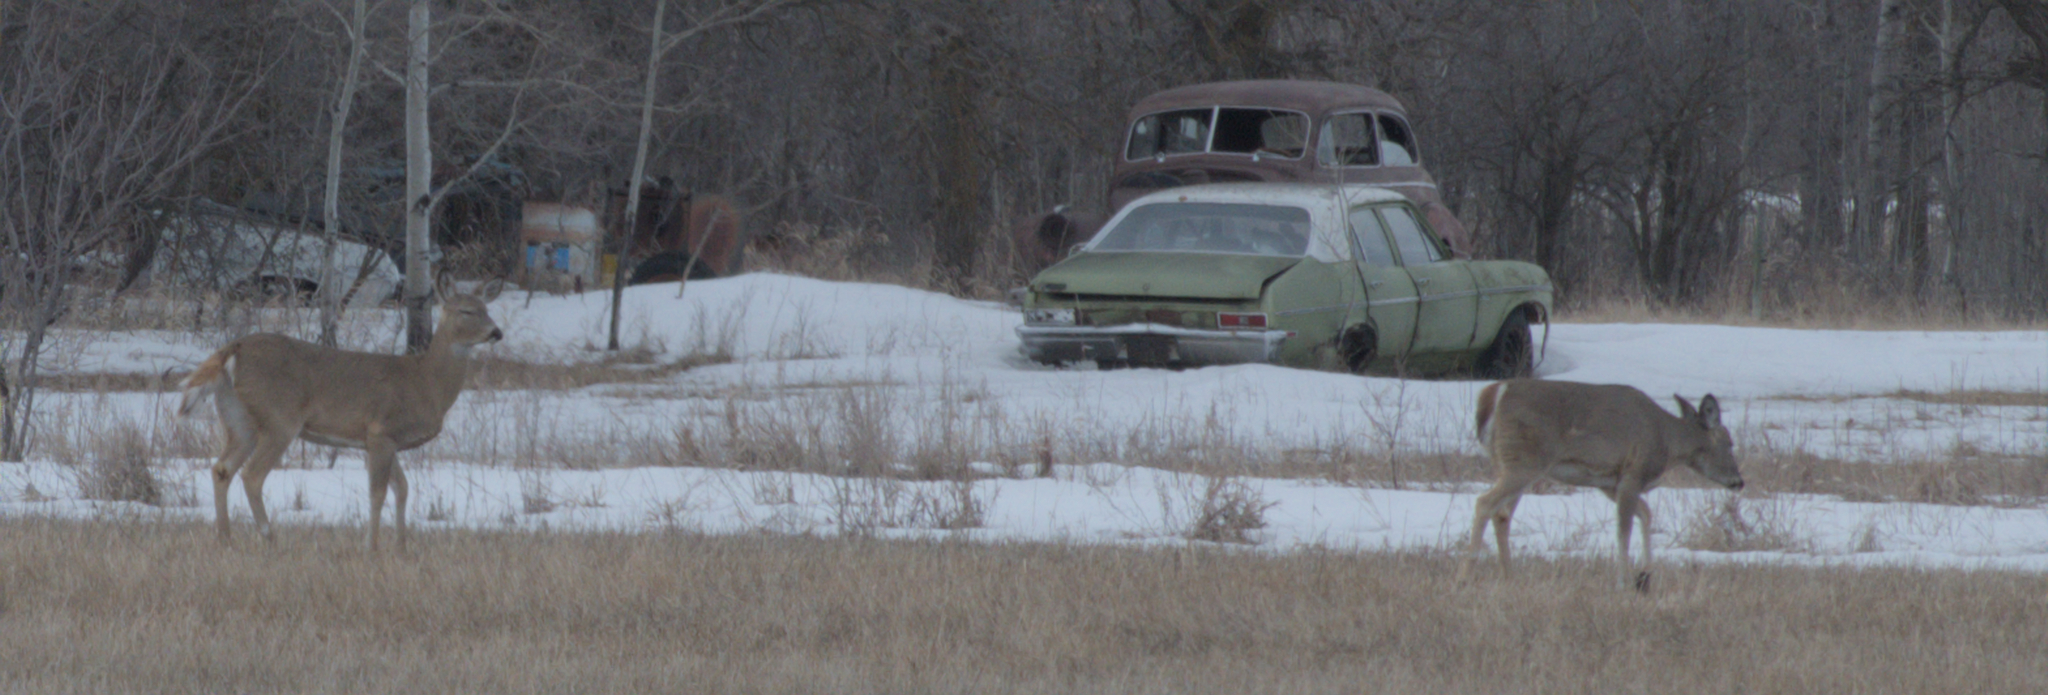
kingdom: Animalia
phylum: Chordata
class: Mammalia
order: Artiodactyla
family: Cervidae
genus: Odocoileus
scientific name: Odocoileus virginianus
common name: White-tailed deer
